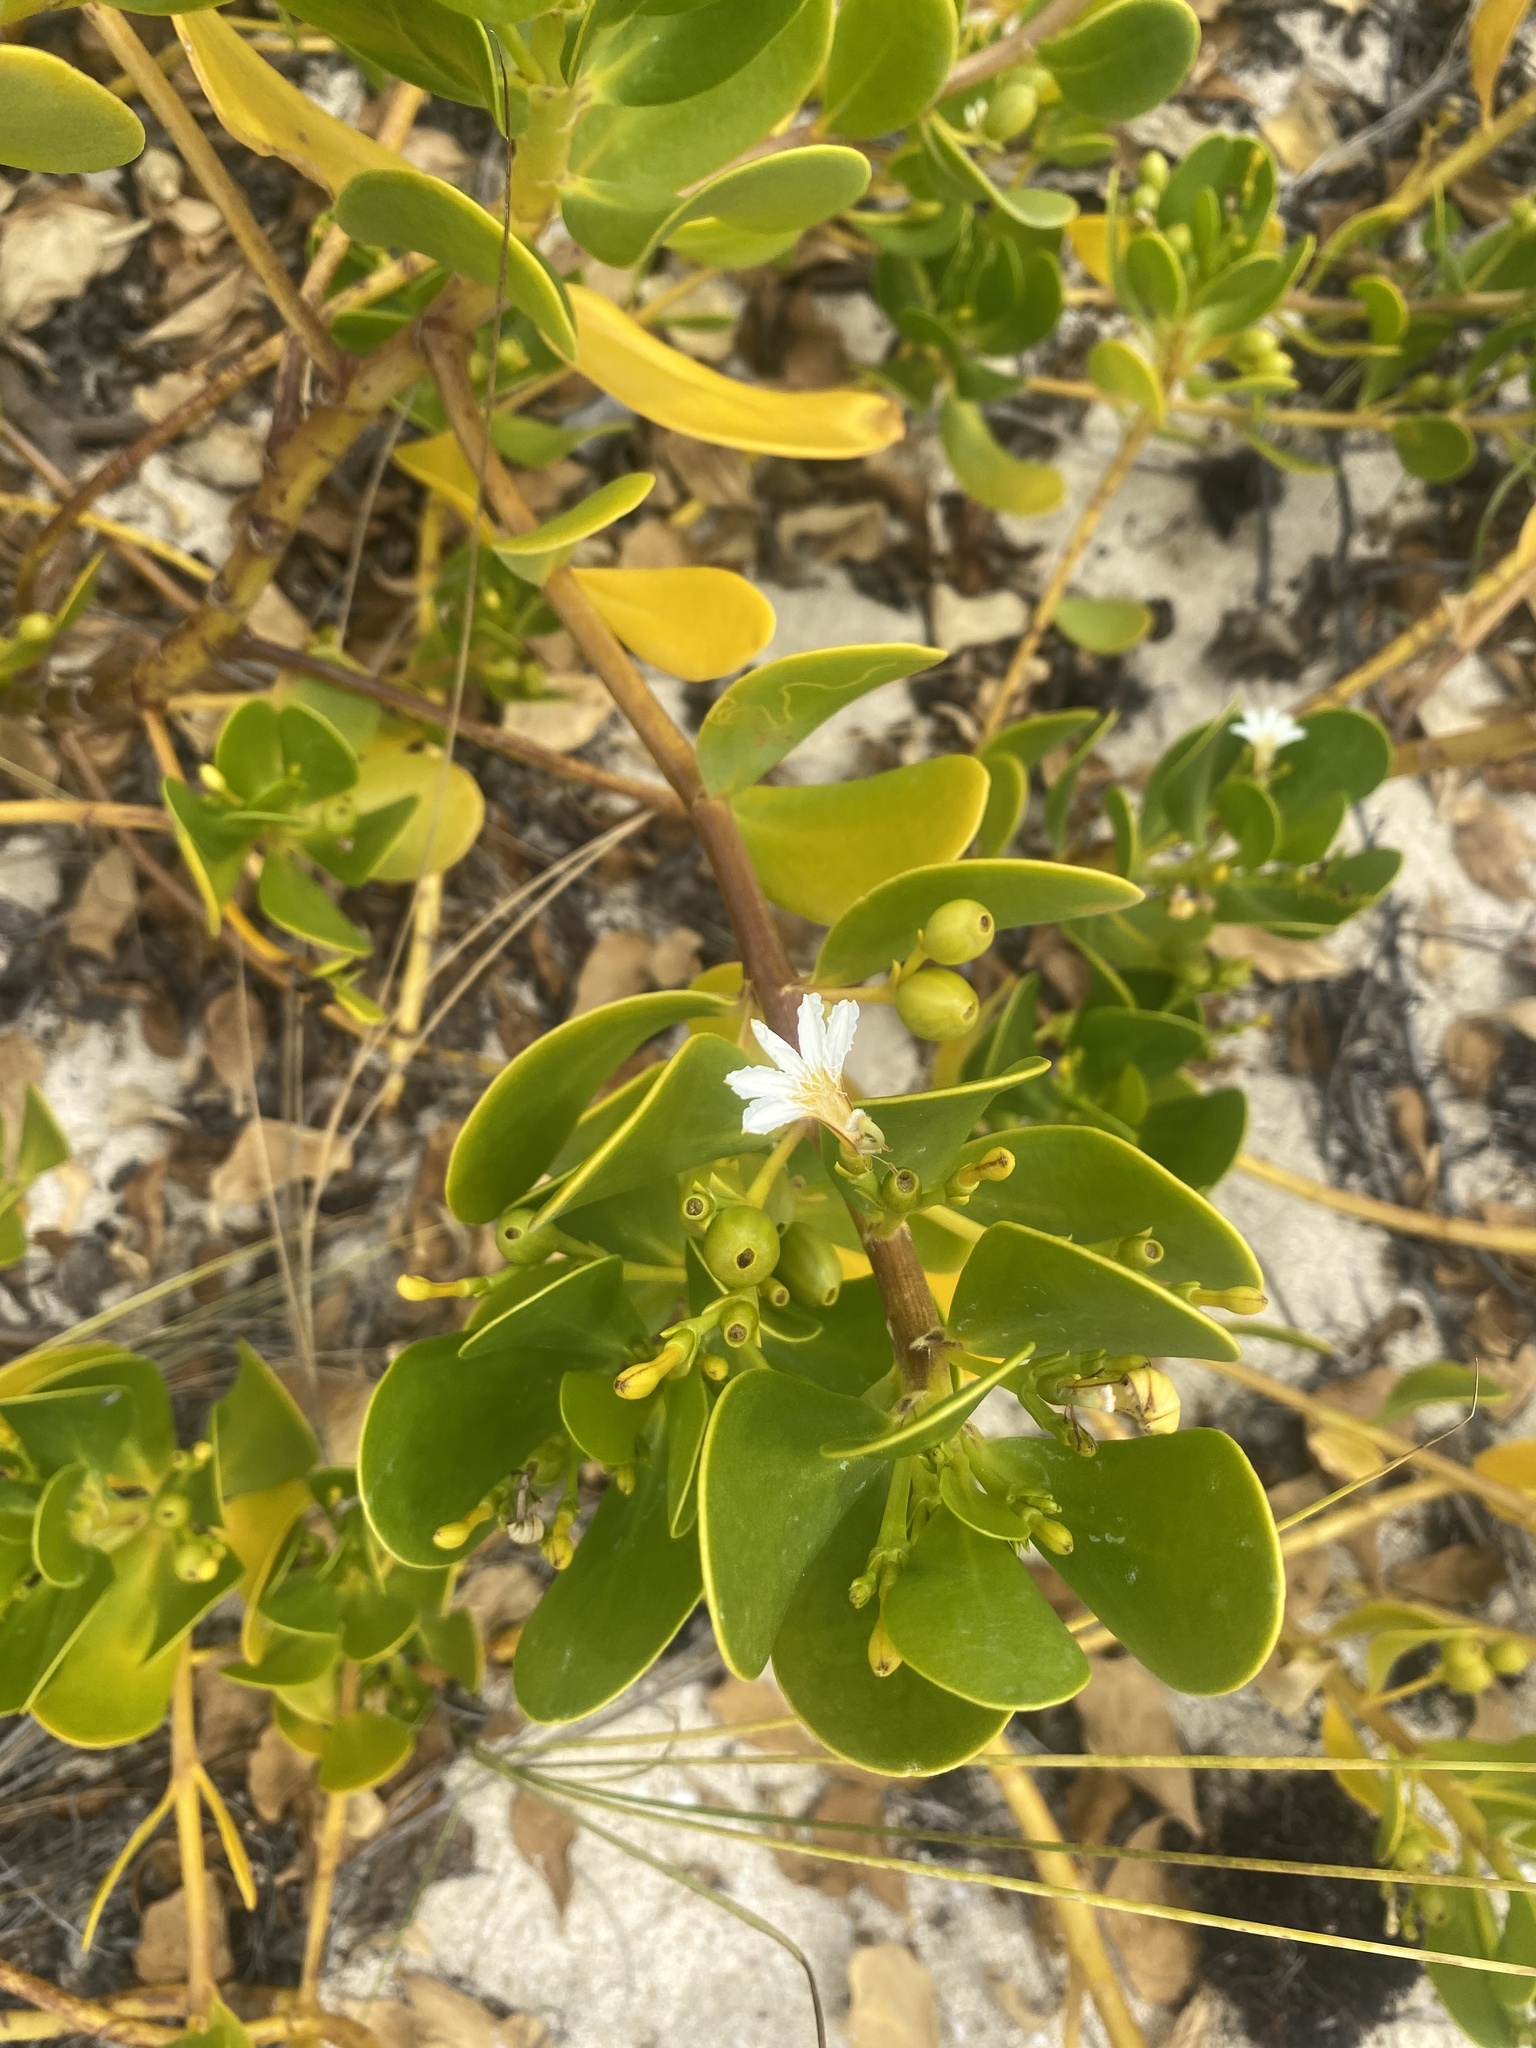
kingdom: Plantae
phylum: Tracheophyta
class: Magnoliopsida
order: Asterales
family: Goodeniaceae
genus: Scaevola
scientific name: Scaevola plumieri
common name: Gull feed
